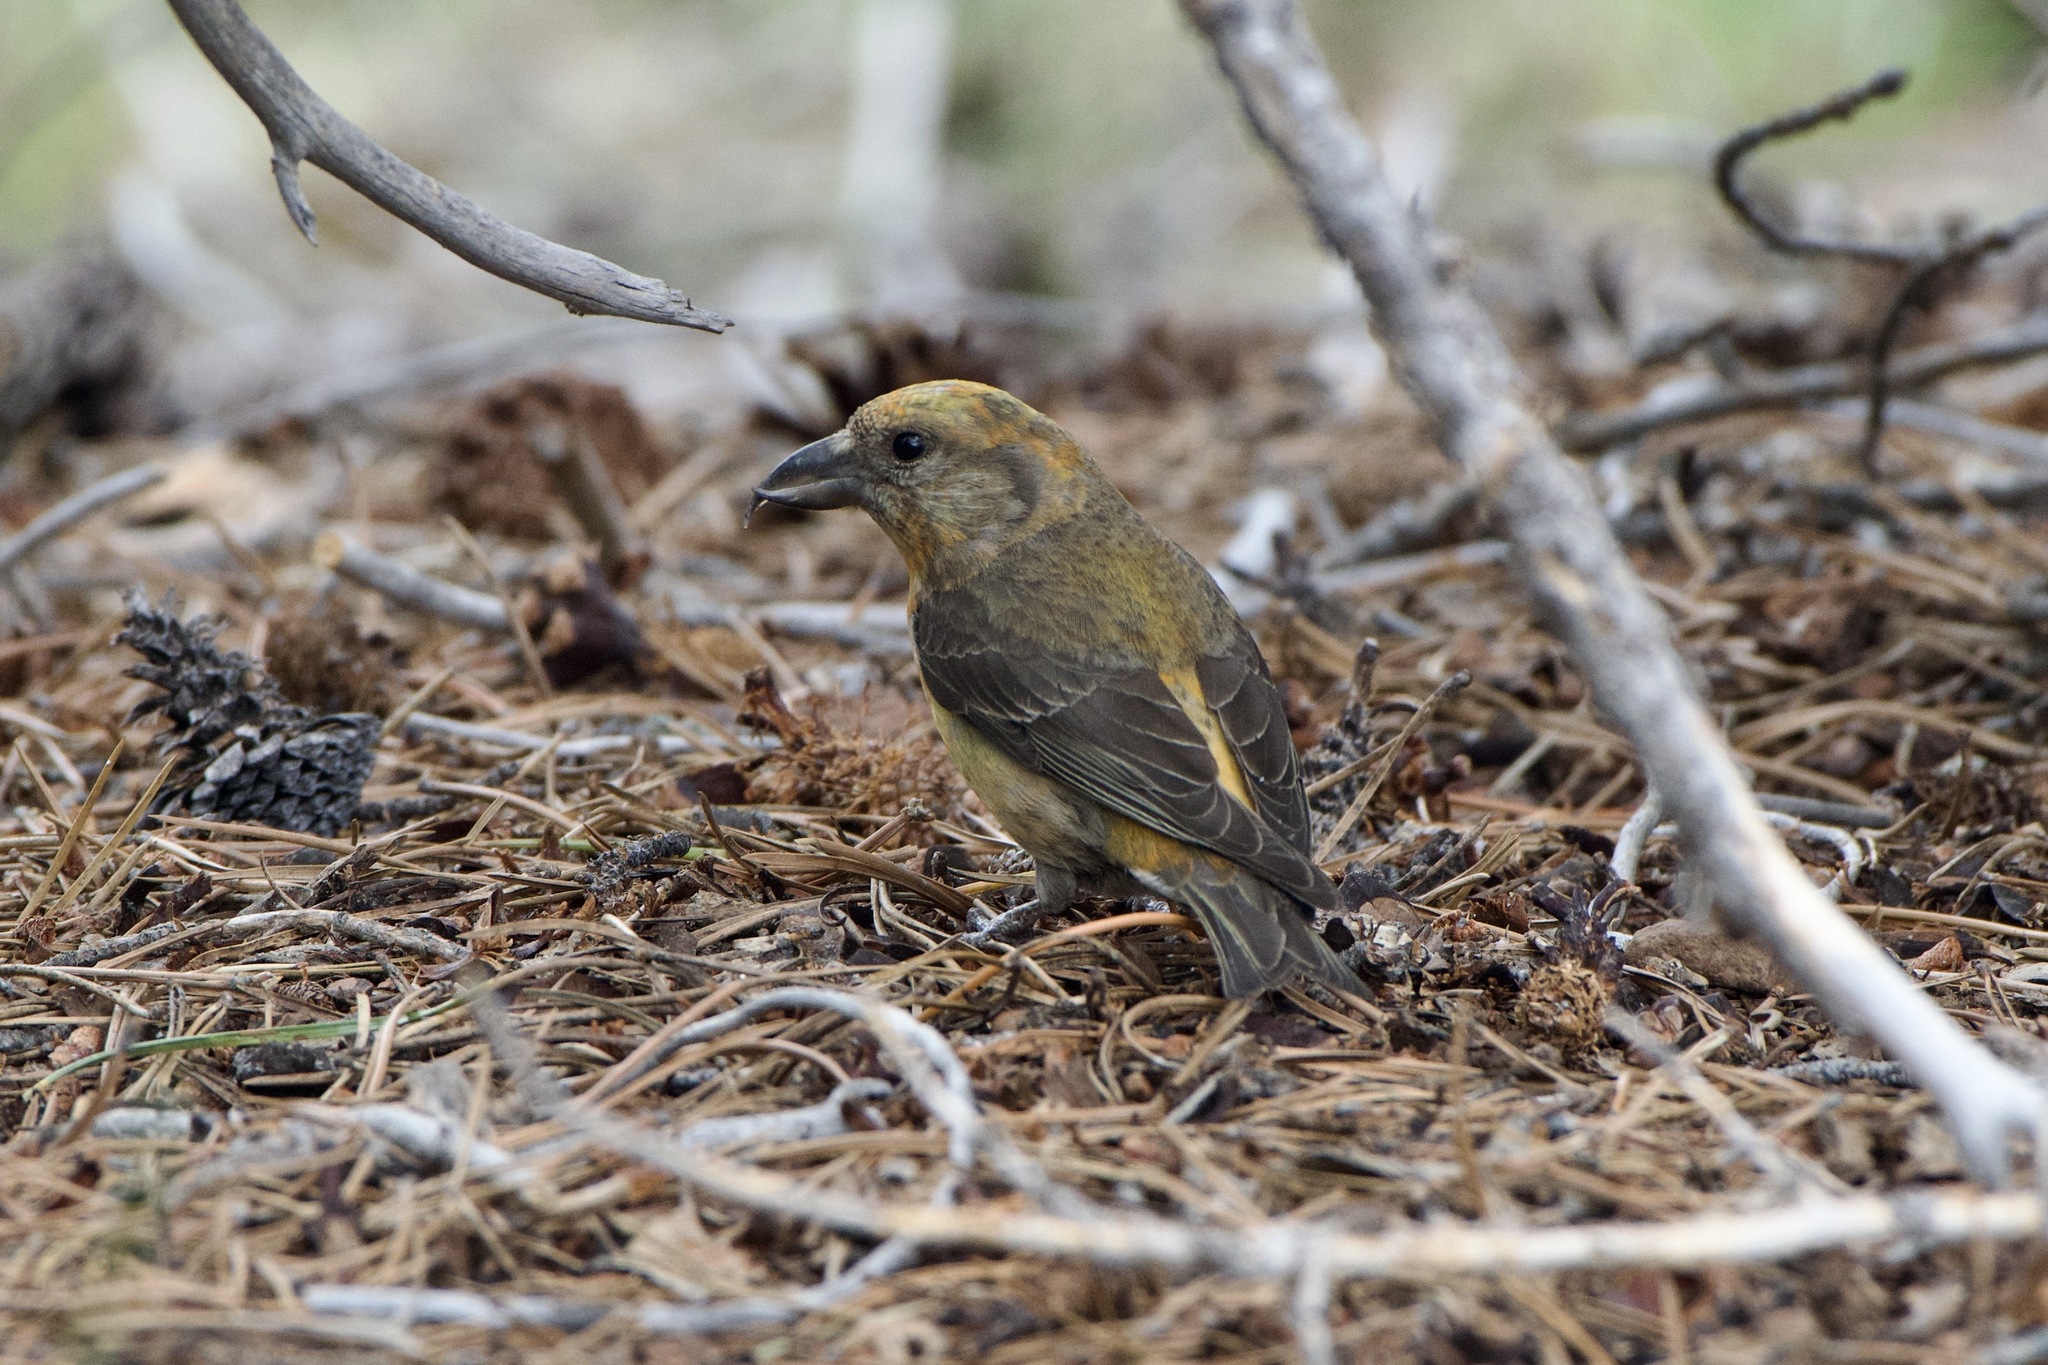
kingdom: Animalia
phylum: Chordata
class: Aves
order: Passeriformes
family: Fringillidae
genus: Loxia
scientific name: Loxia curvirostra
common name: Red crossbill
